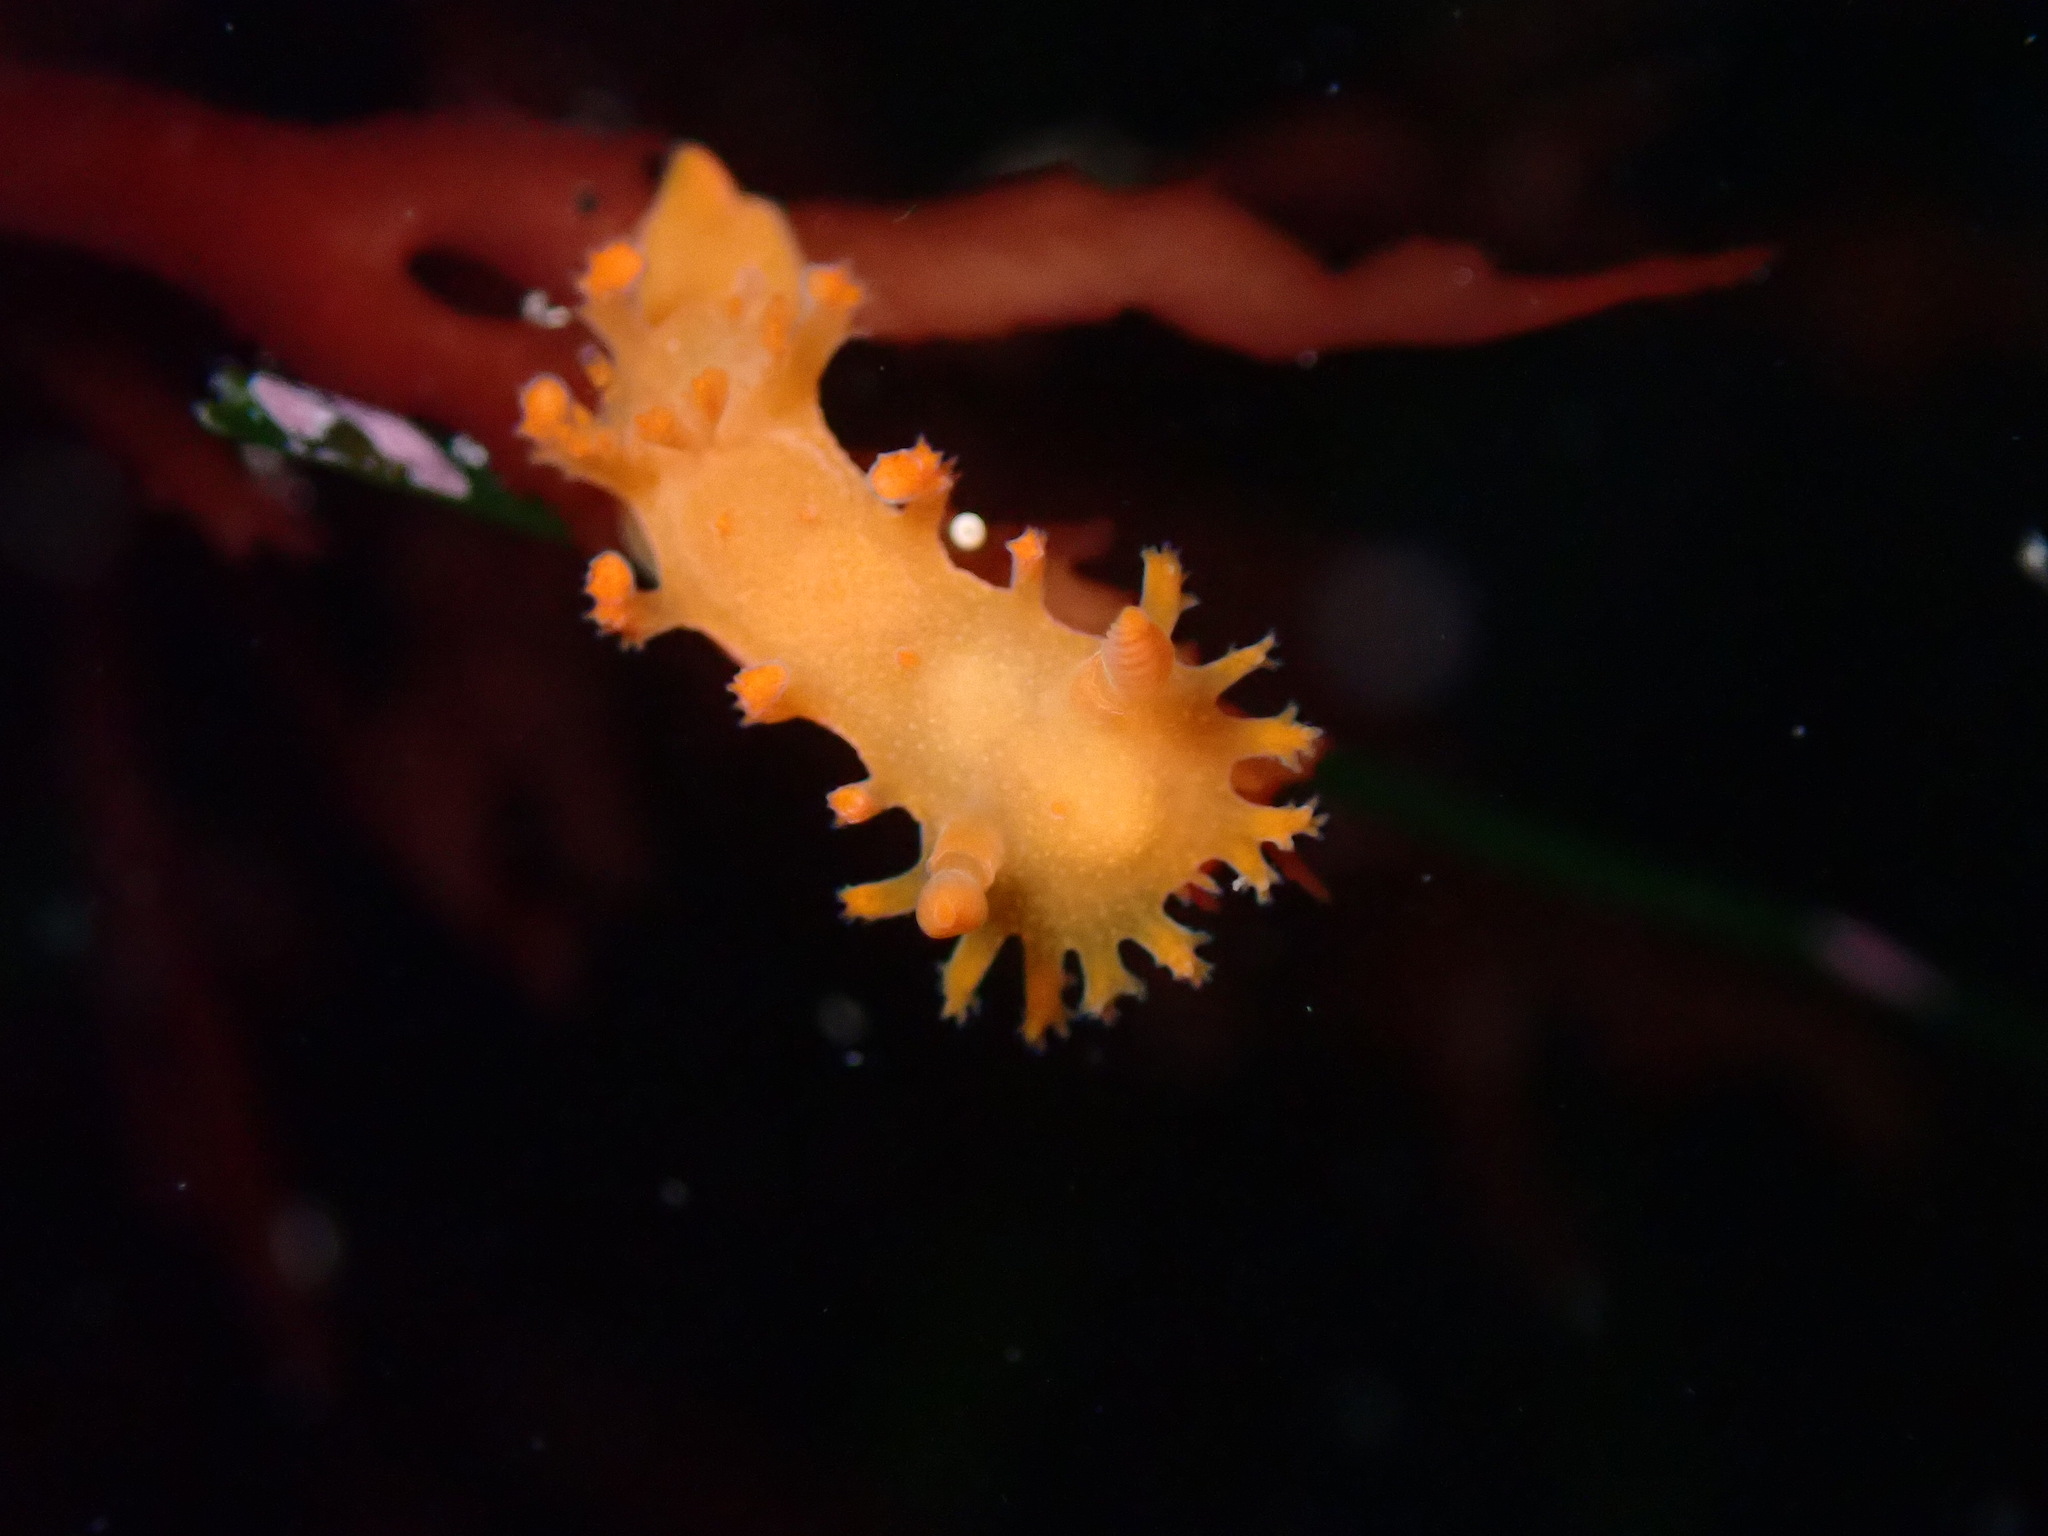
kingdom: Animalia
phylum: Mollusca
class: Gastropoda
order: Nudibranchia
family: Polyceridae
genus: Triopha
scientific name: Triopha maculata
